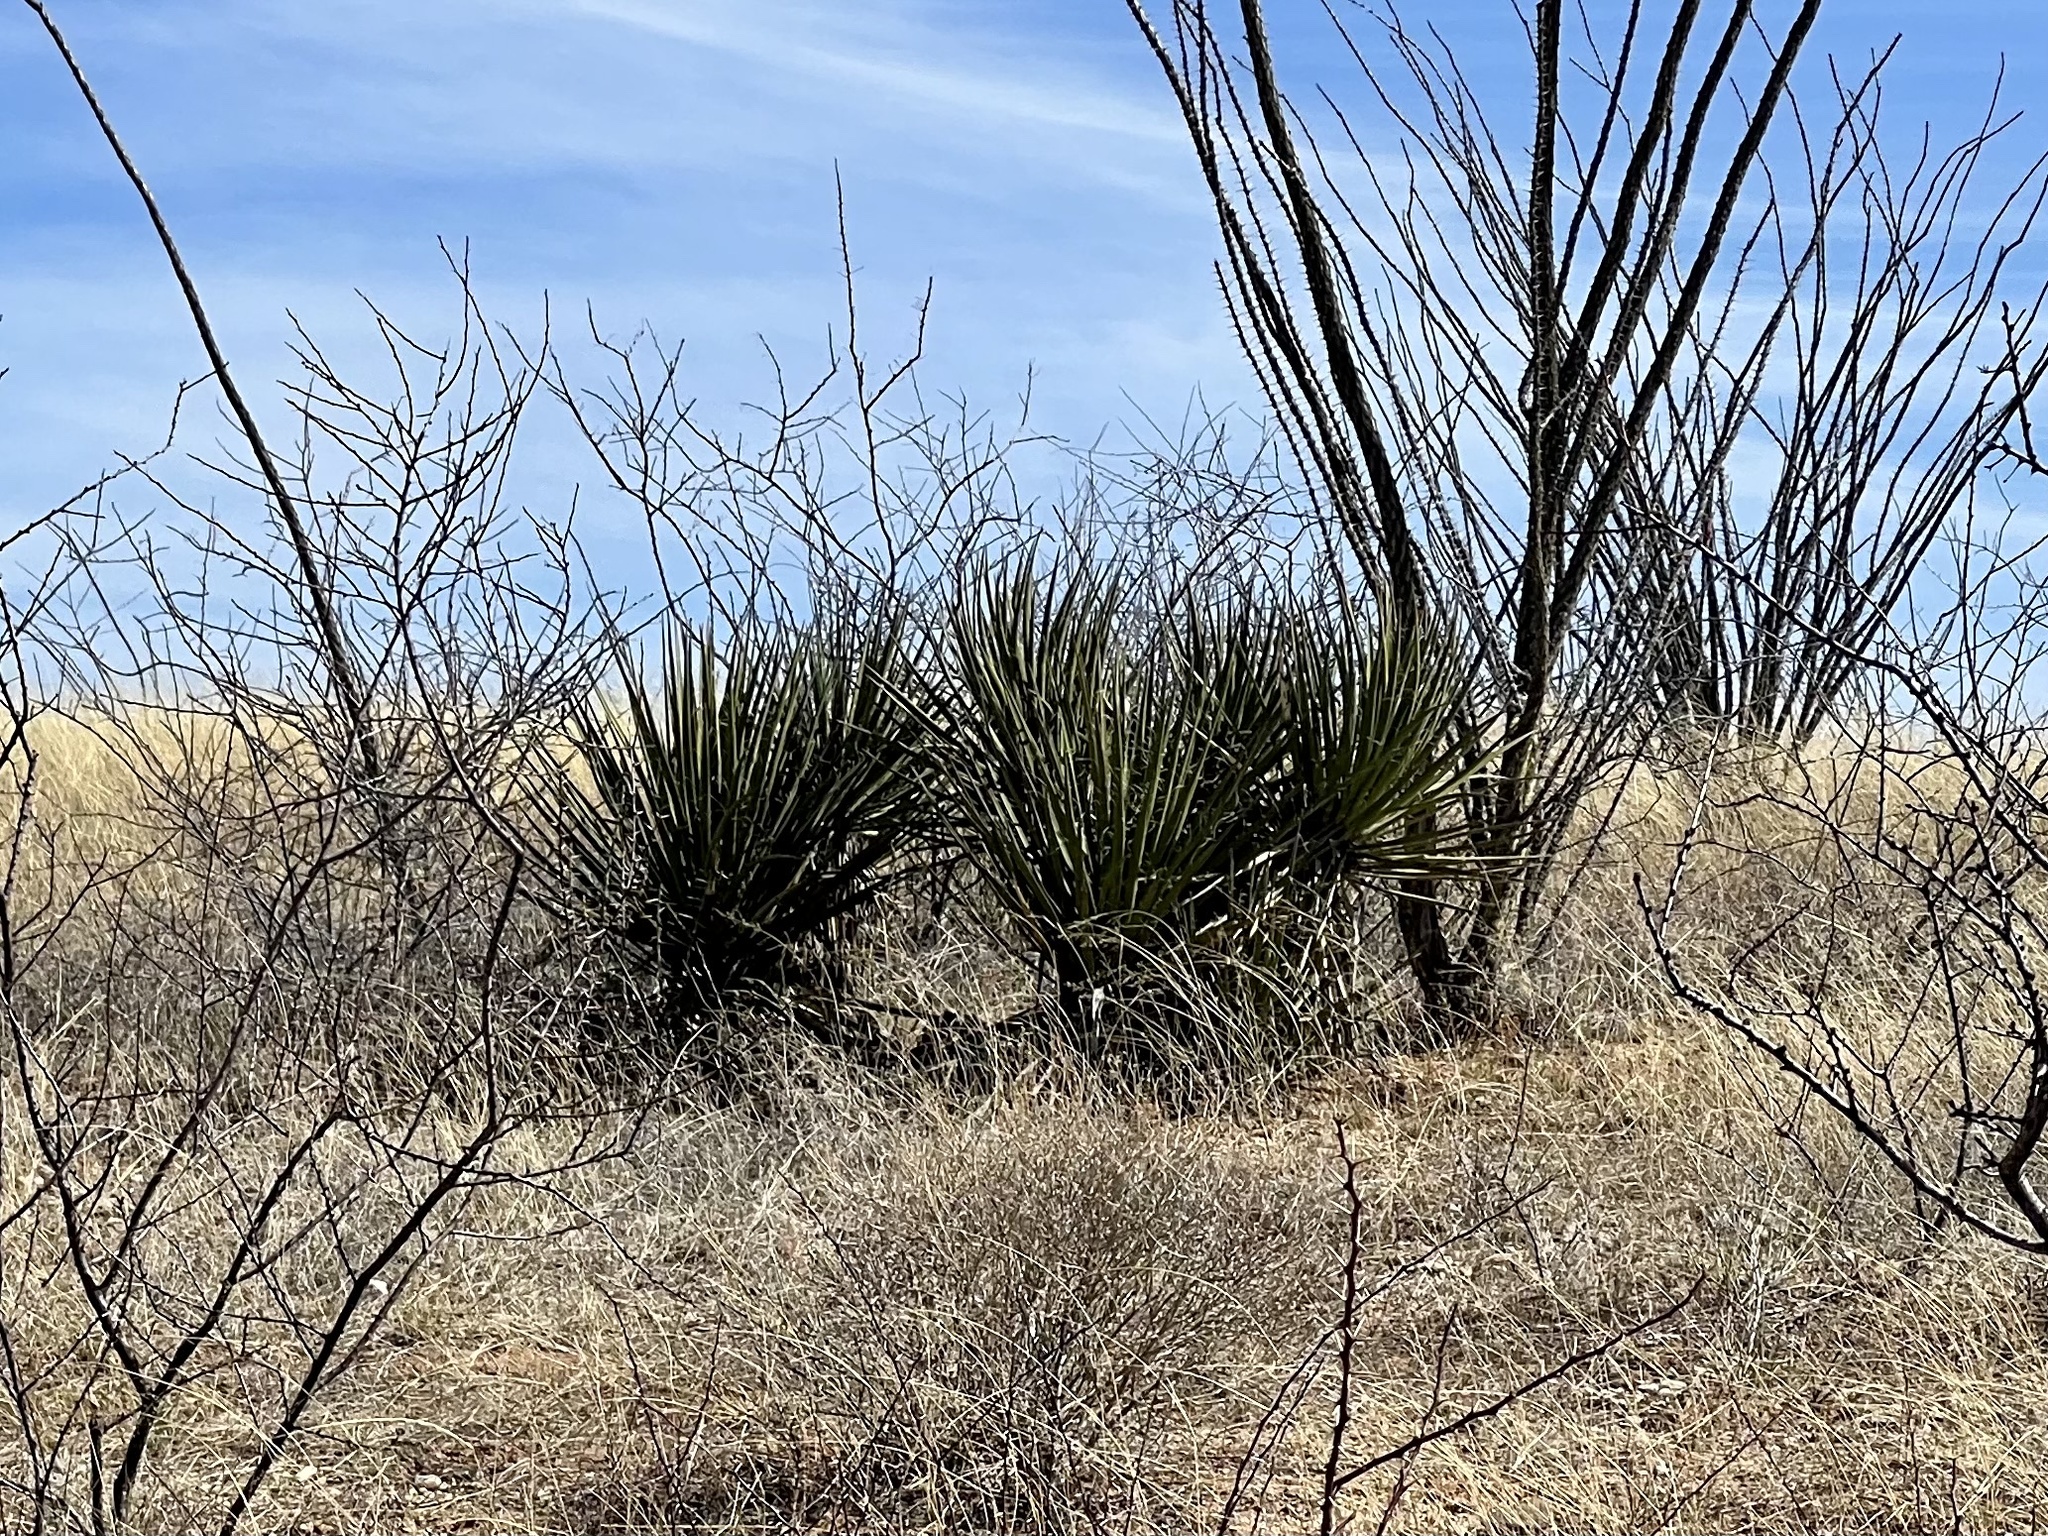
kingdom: Plantae
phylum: Tracheophyta
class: Liliopsida
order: Asparagales
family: Asparagaceae
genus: Yucca
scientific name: Yucca baccata
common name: Banana yucca
